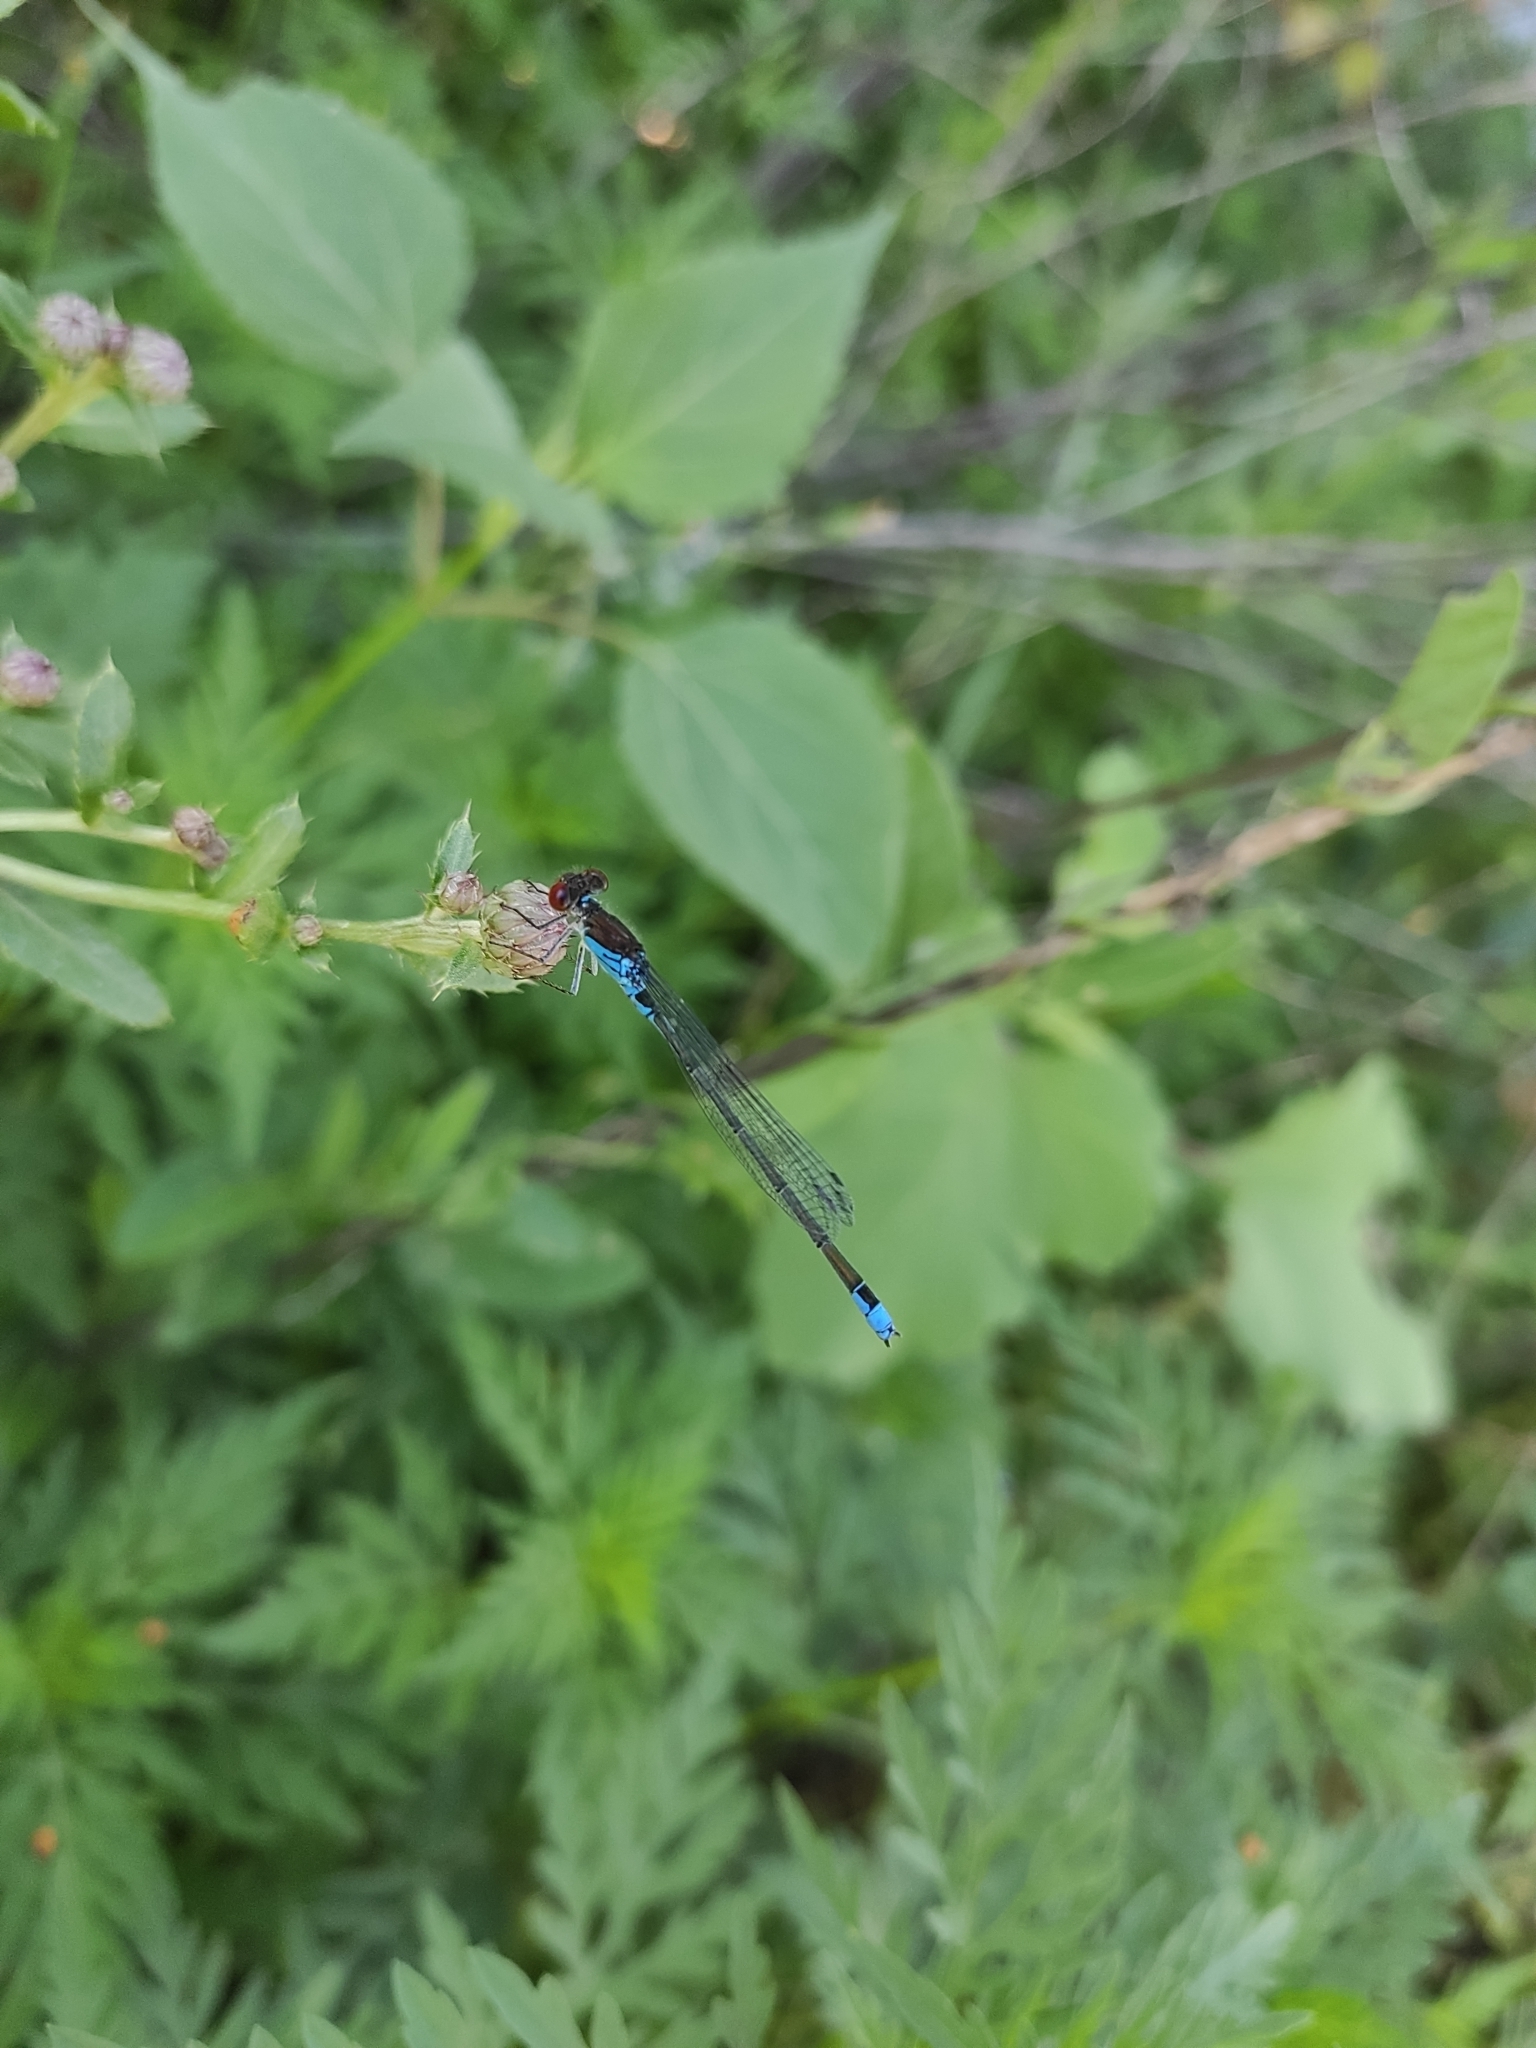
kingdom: Animalia
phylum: Arthropoda
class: Insecta
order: Odonata
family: Coenagrionidae
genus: Erythromma
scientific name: Erythromma viridulum
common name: Small red-eyed damselfly
